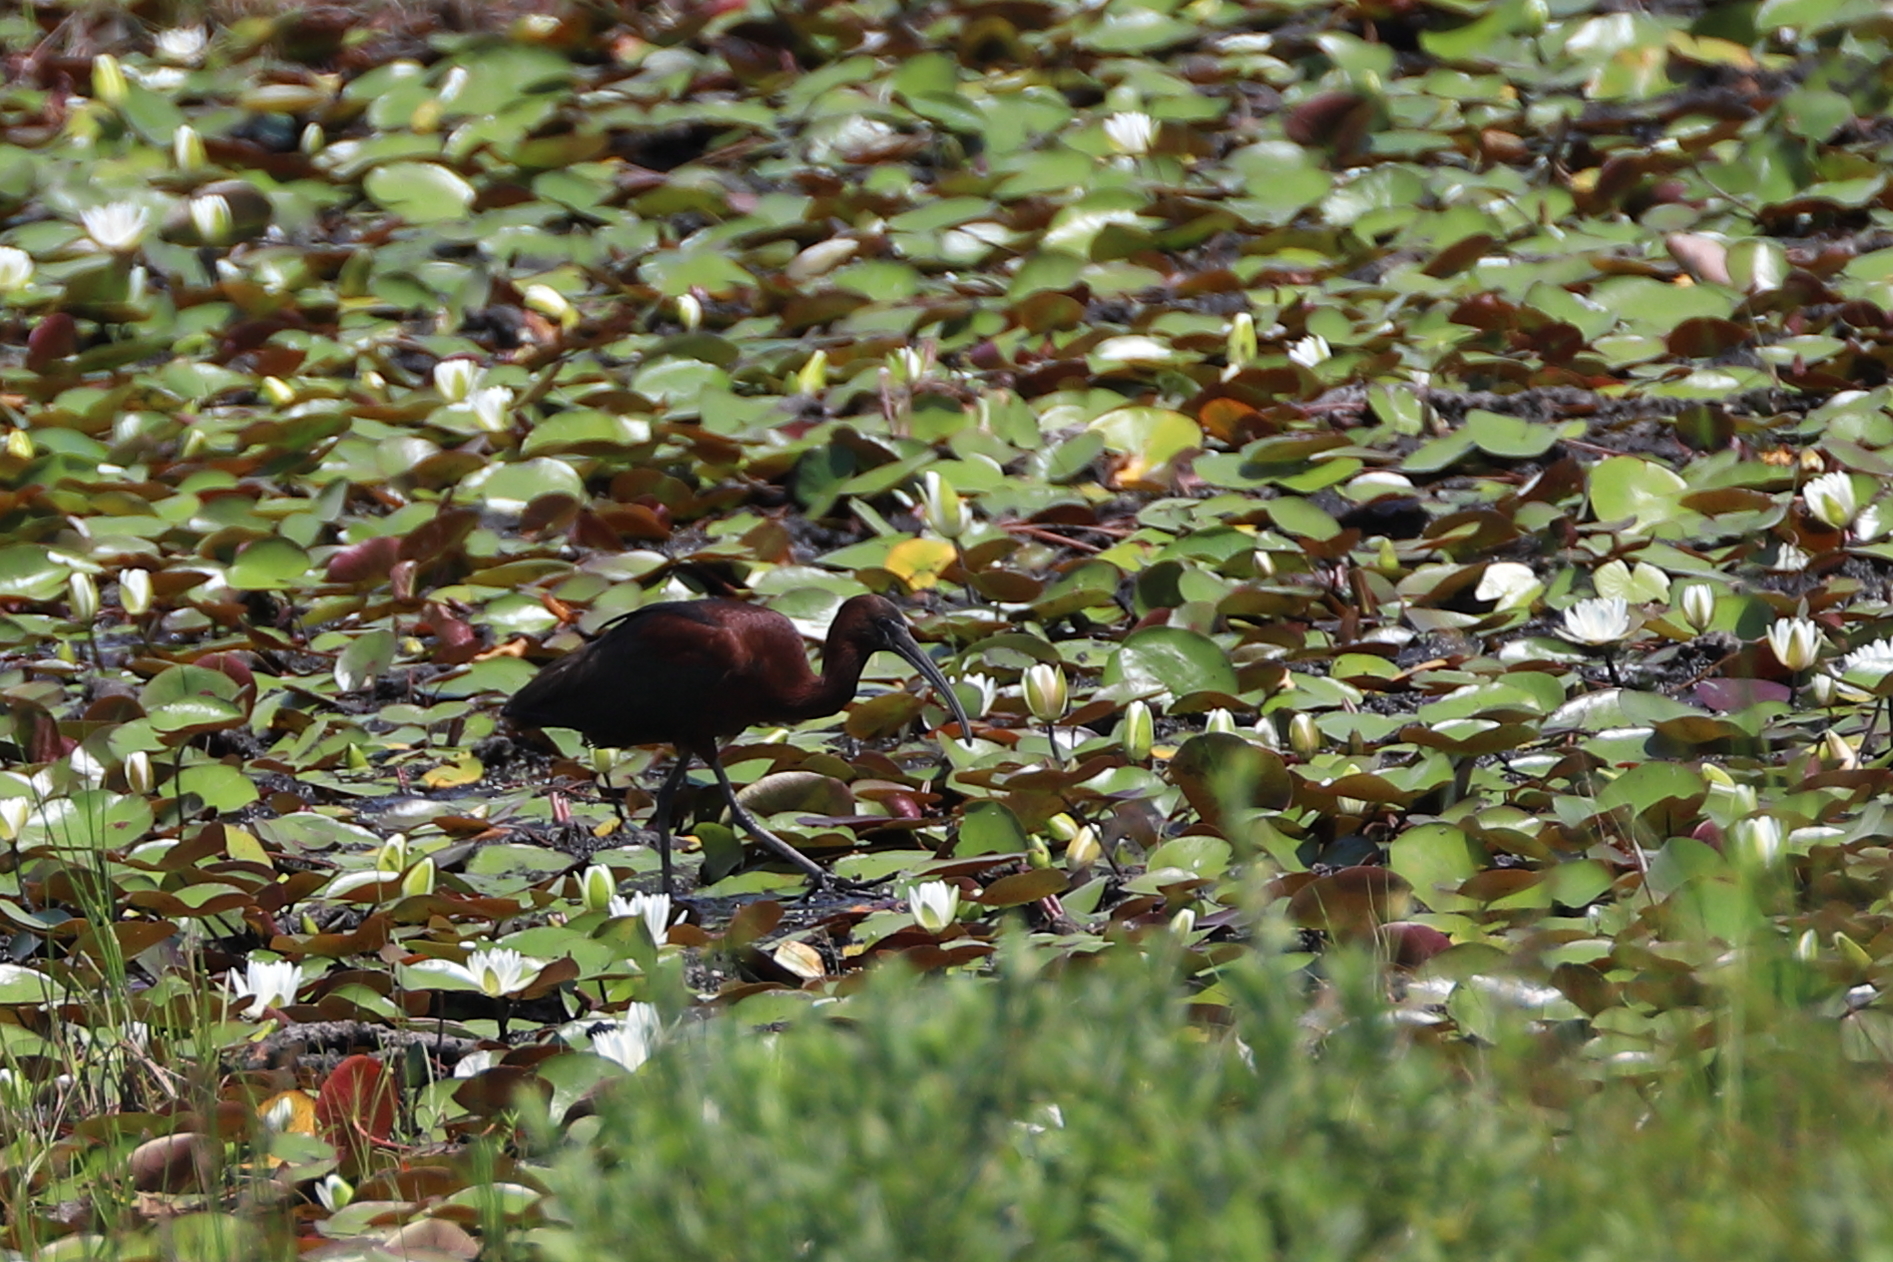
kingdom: Animalia
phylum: Chordata
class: Aves
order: Pelecaniformes
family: Threskiornithidae
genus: Plegadis
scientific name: Plegadis falcinellus
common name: Glossy ibis
